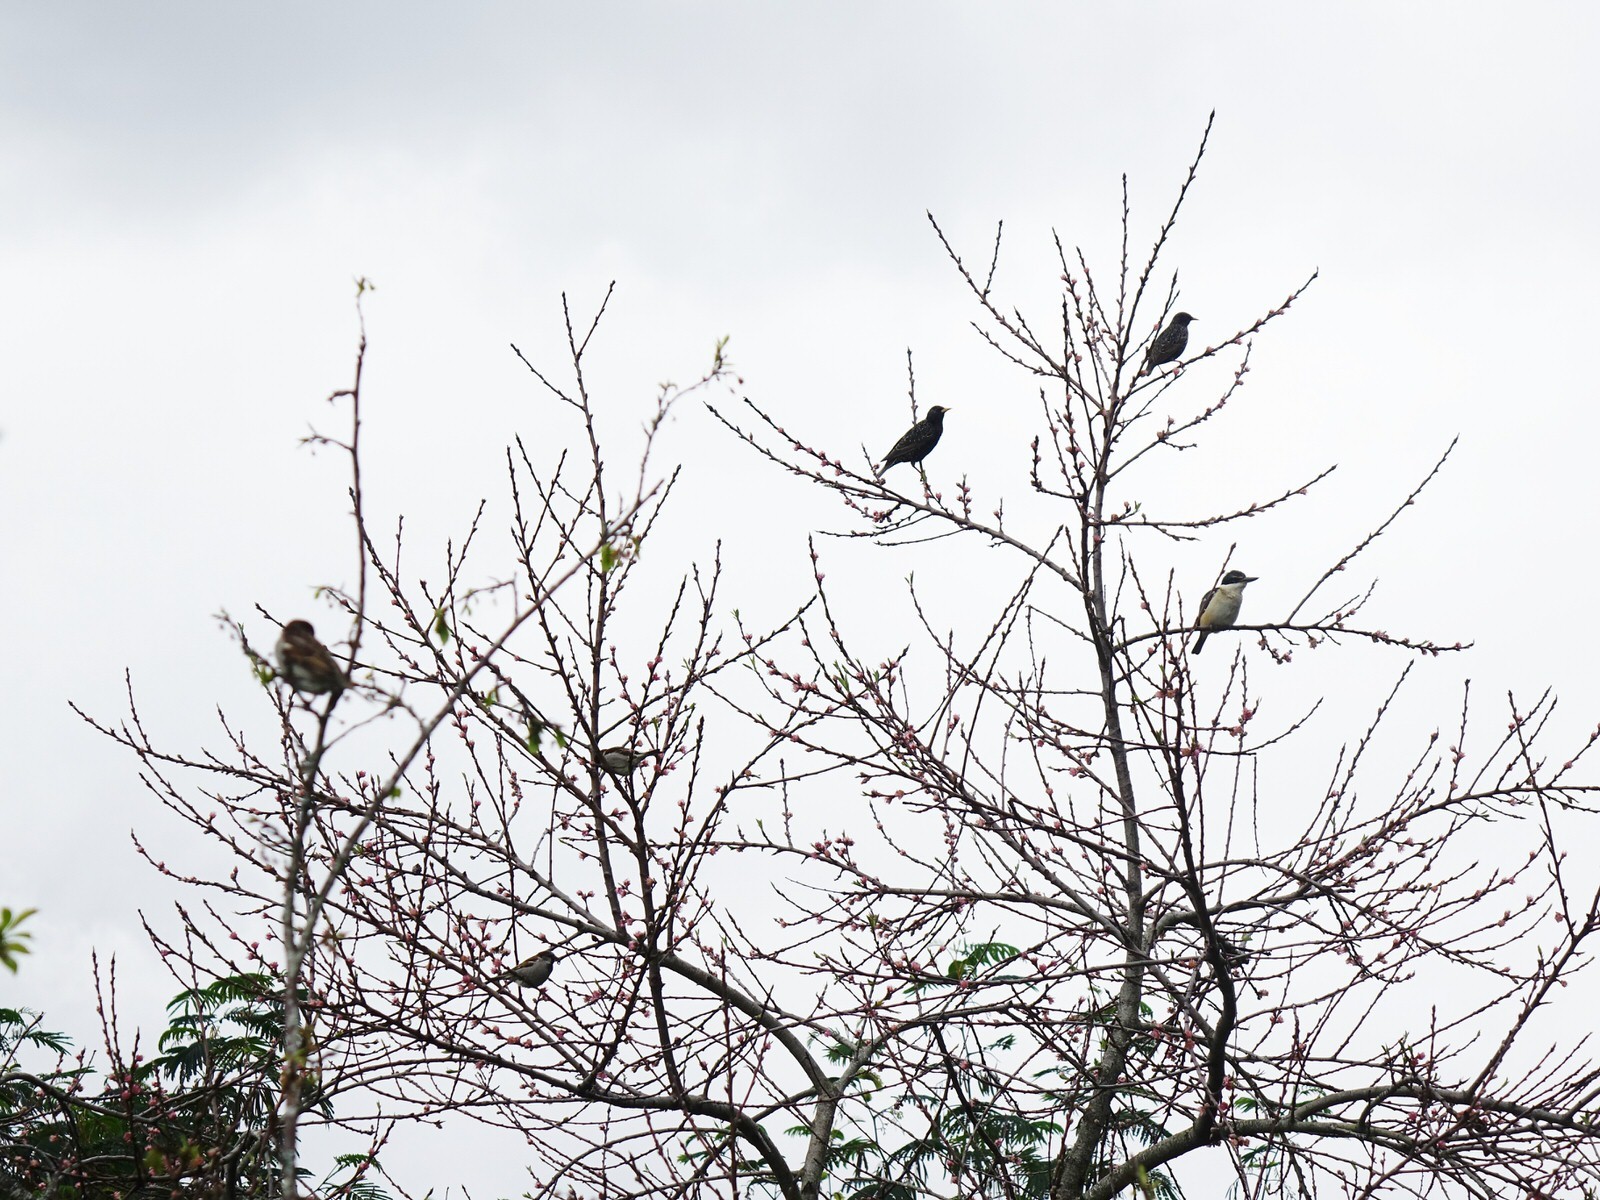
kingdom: Animalia
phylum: Chordata
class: Aves
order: Coraciiformes
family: Alcedinidae
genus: Todiramphus
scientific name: Todiramphus sanctus
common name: Sacred kingfisher
